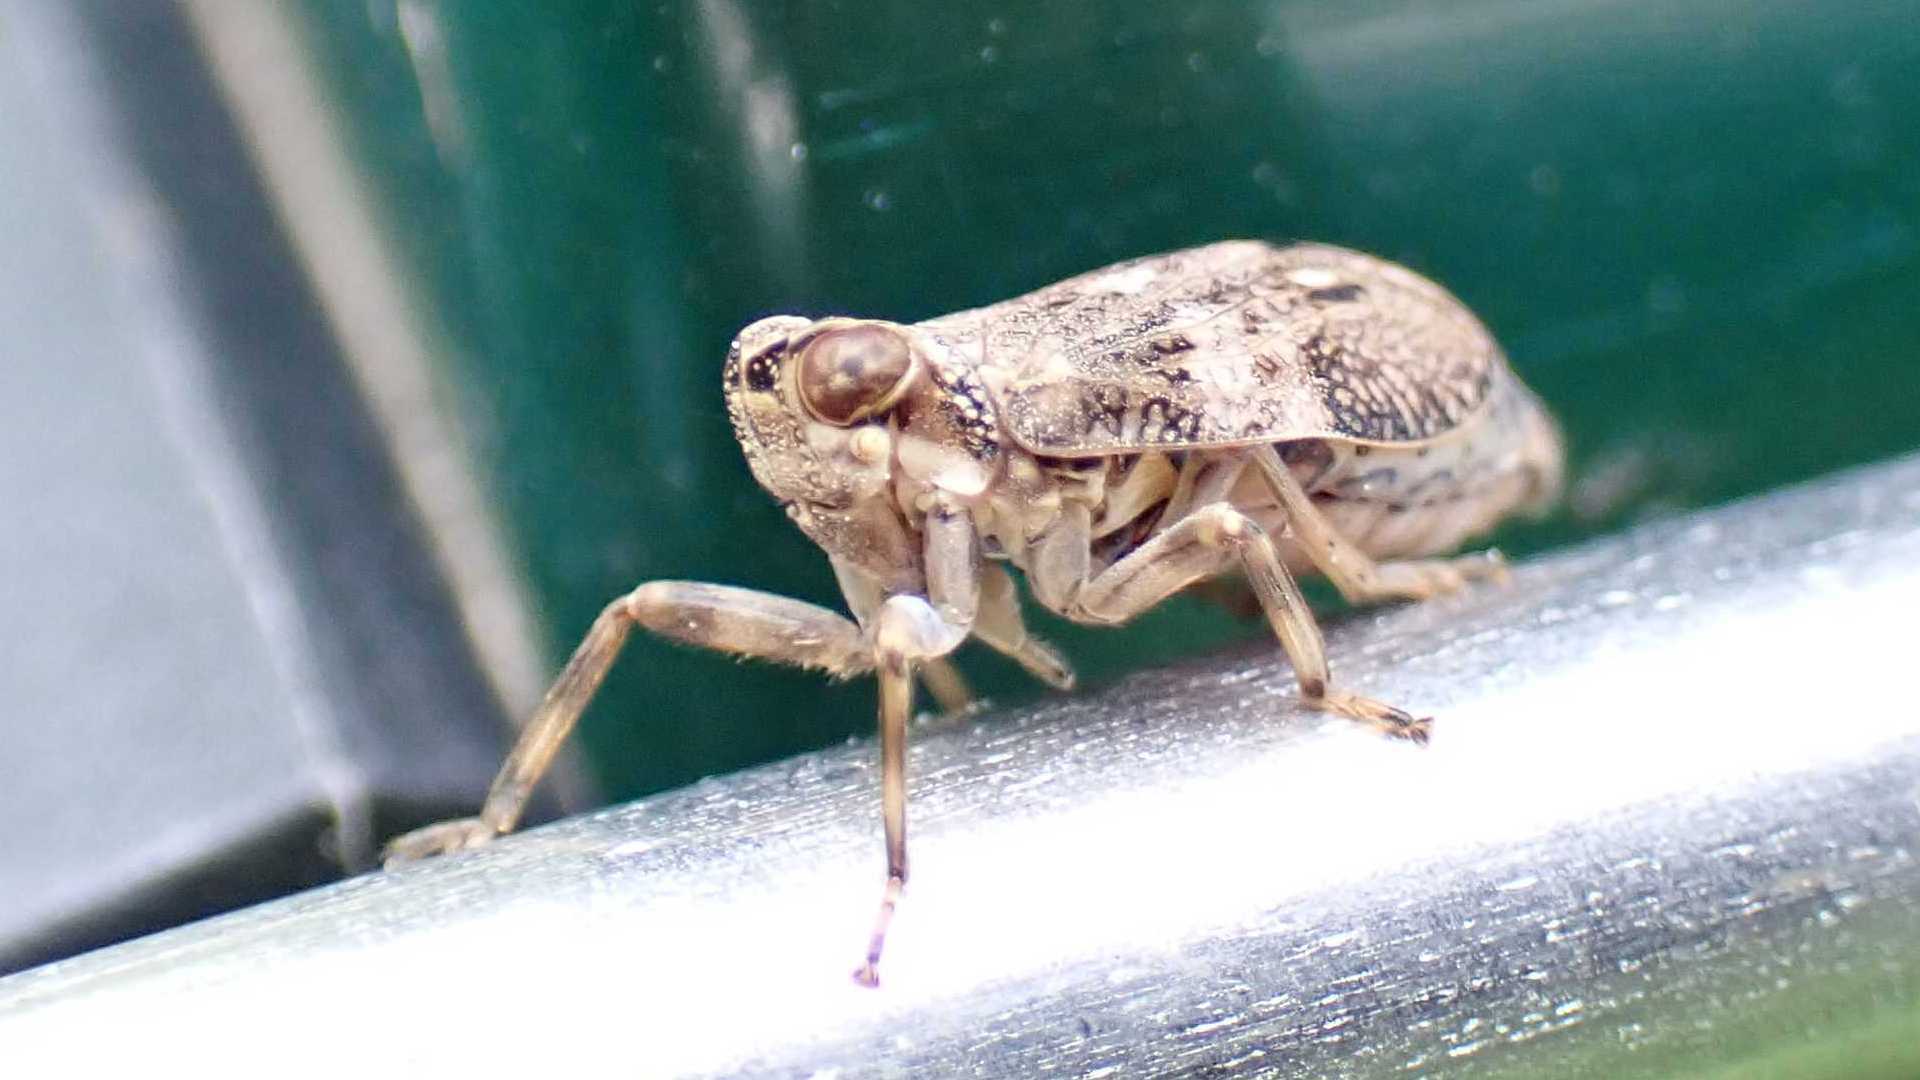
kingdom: Animalia
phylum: Arthropoda
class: Insecta
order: Hemiptera
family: Issidae
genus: Issus
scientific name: Issus coleoptratus
